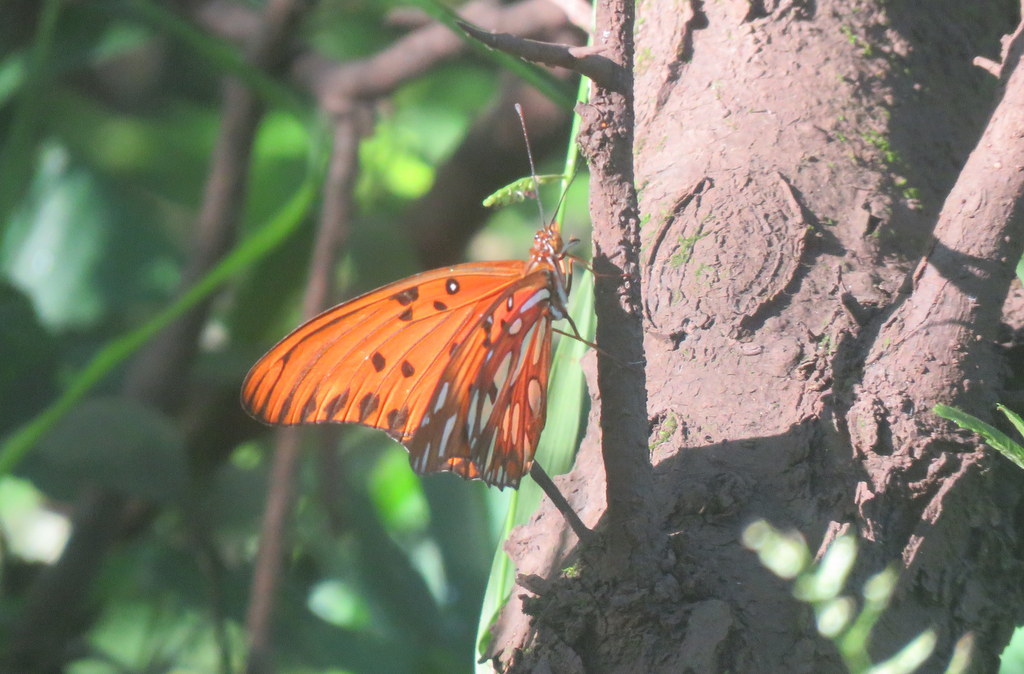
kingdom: Animalia
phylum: Arthropoda
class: Insecta
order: Lepidoptera
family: Nymphalidae
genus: Dione
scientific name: Dione vanillae
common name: Gulf fritillary
